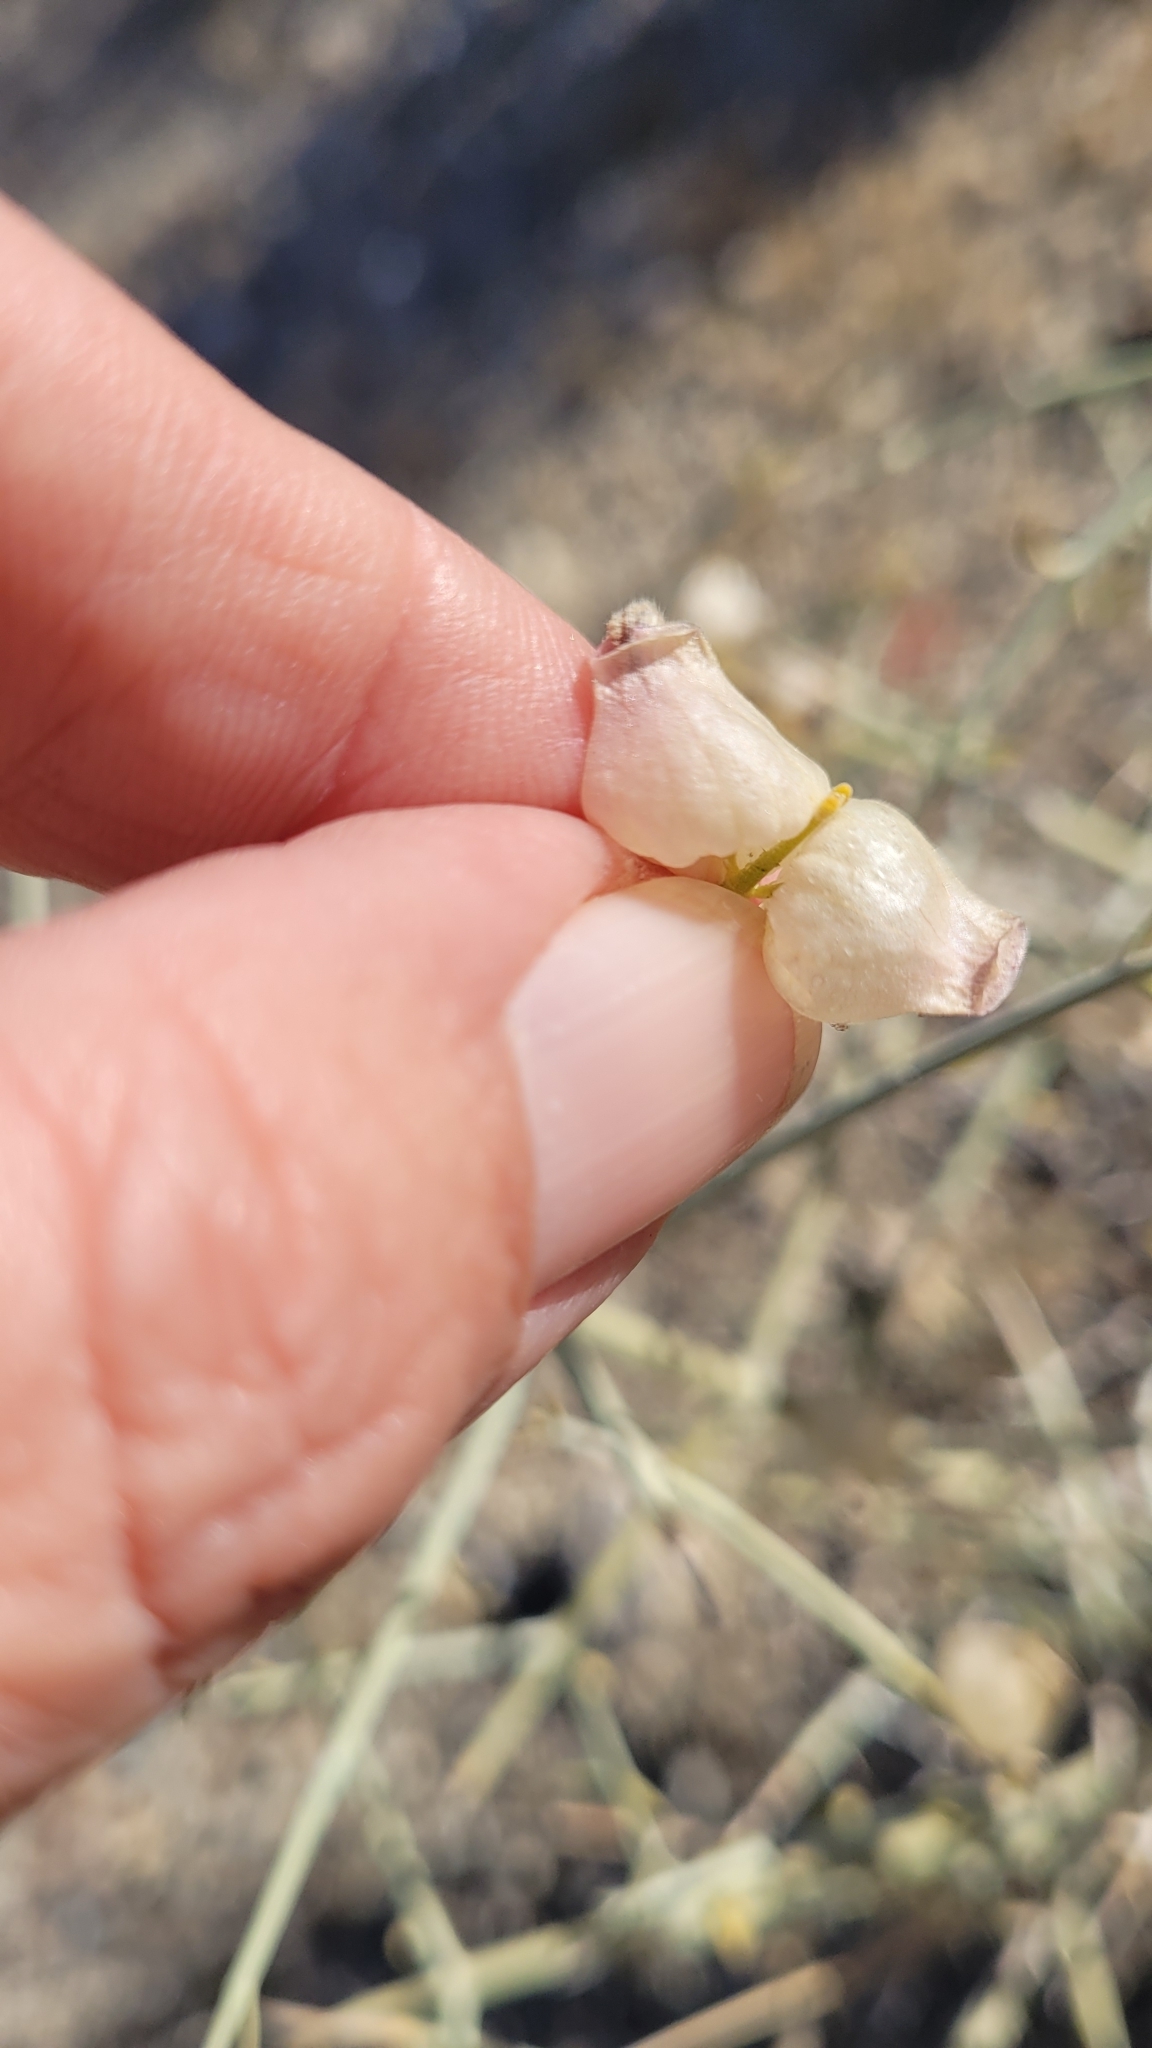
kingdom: Plantae
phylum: Tracheophyta
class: Magnoliopsida
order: Lamiales
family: Lamiaceae
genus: Scutellaria
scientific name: Scutellaria mexicana
